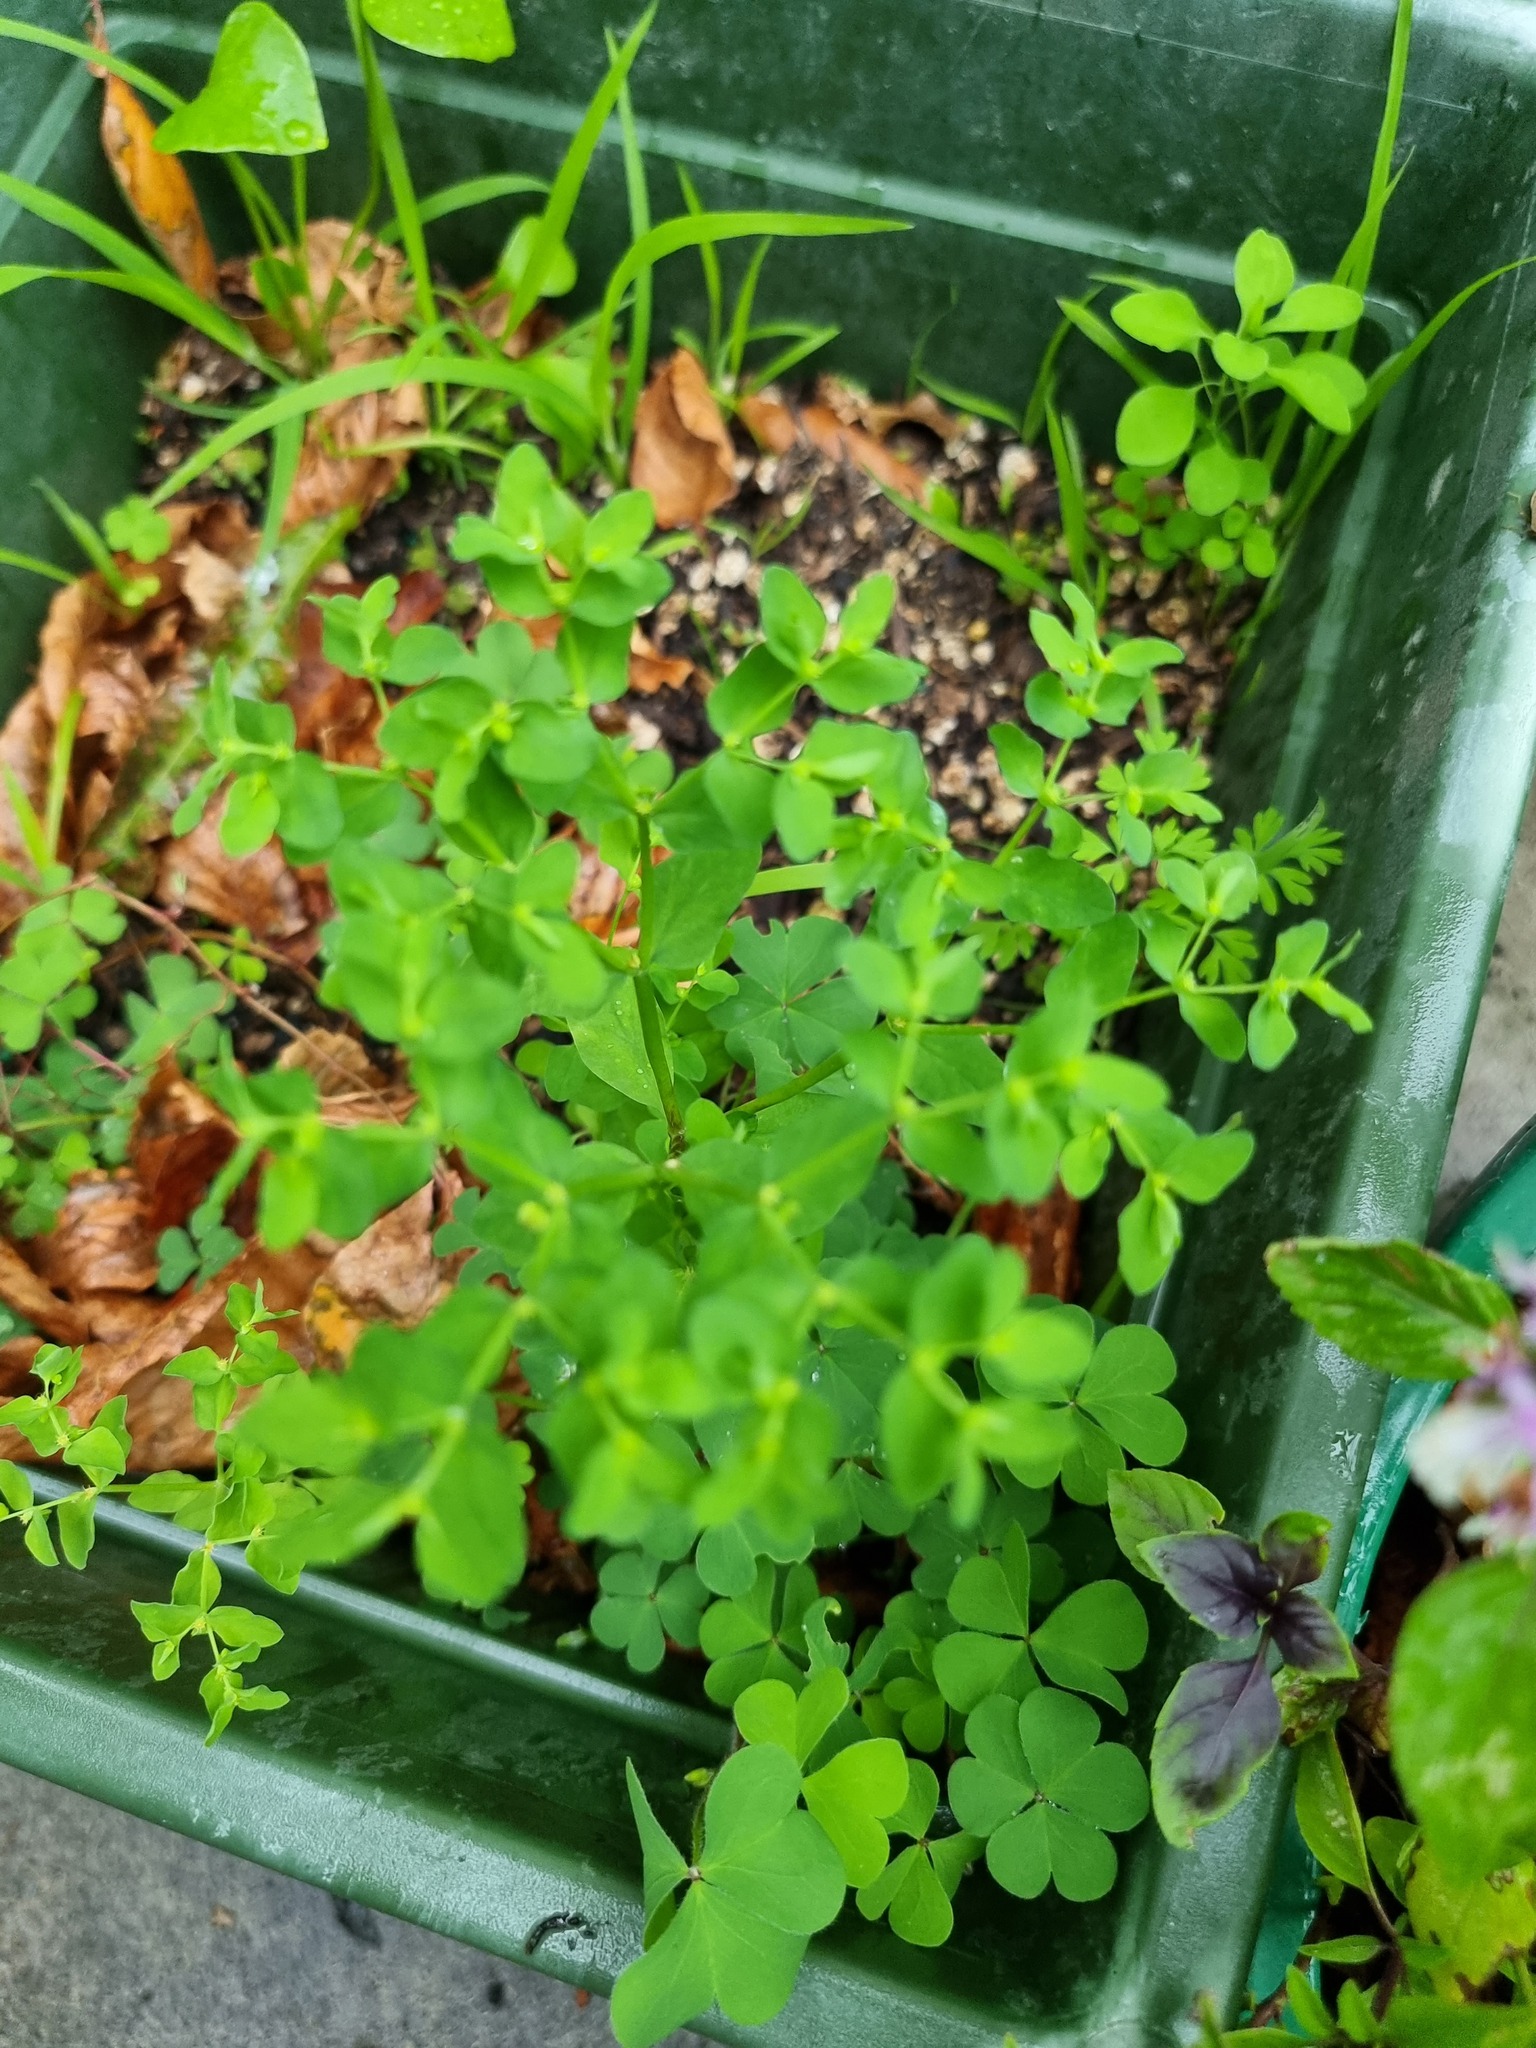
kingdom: Plantae
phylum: Tracheophyta
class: Magnoliopsida
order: Malpighiales
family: Euphorbiaceae
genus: Euphorbia
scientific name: Euphorbia peplus
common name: Petty spurge
